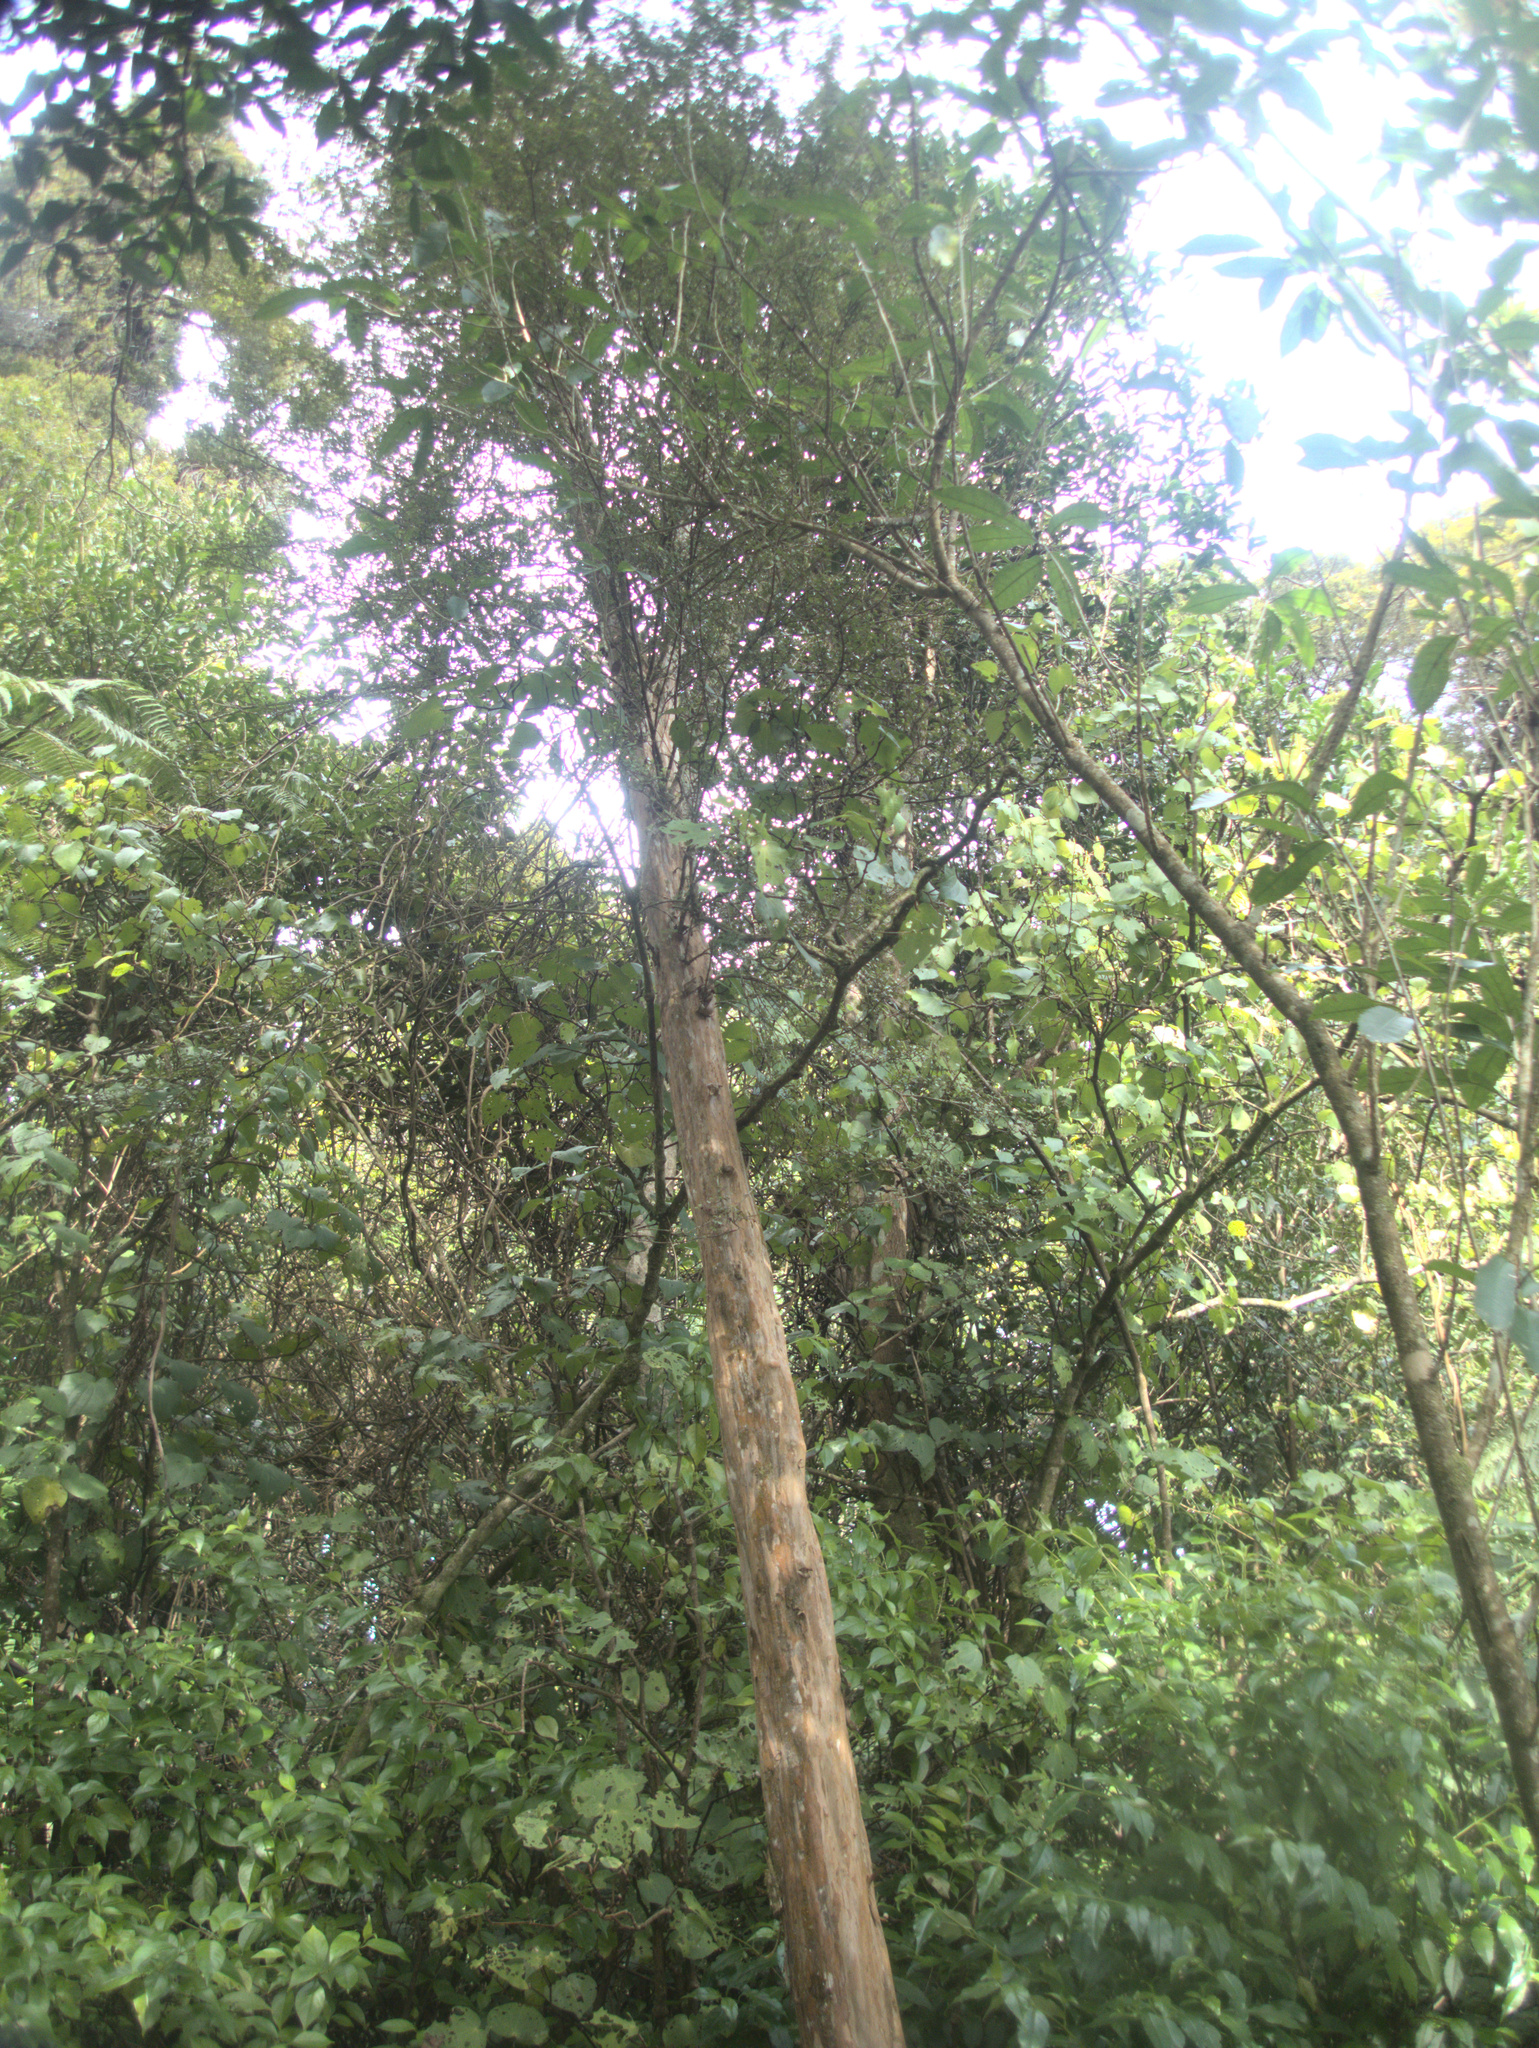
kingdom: Plantae
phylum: Tracheophyta
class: Magnoliopsida
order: Myrtales
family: Myrtaceae
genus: Lophomyrtus
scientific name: Lophomyrtus obcordata
